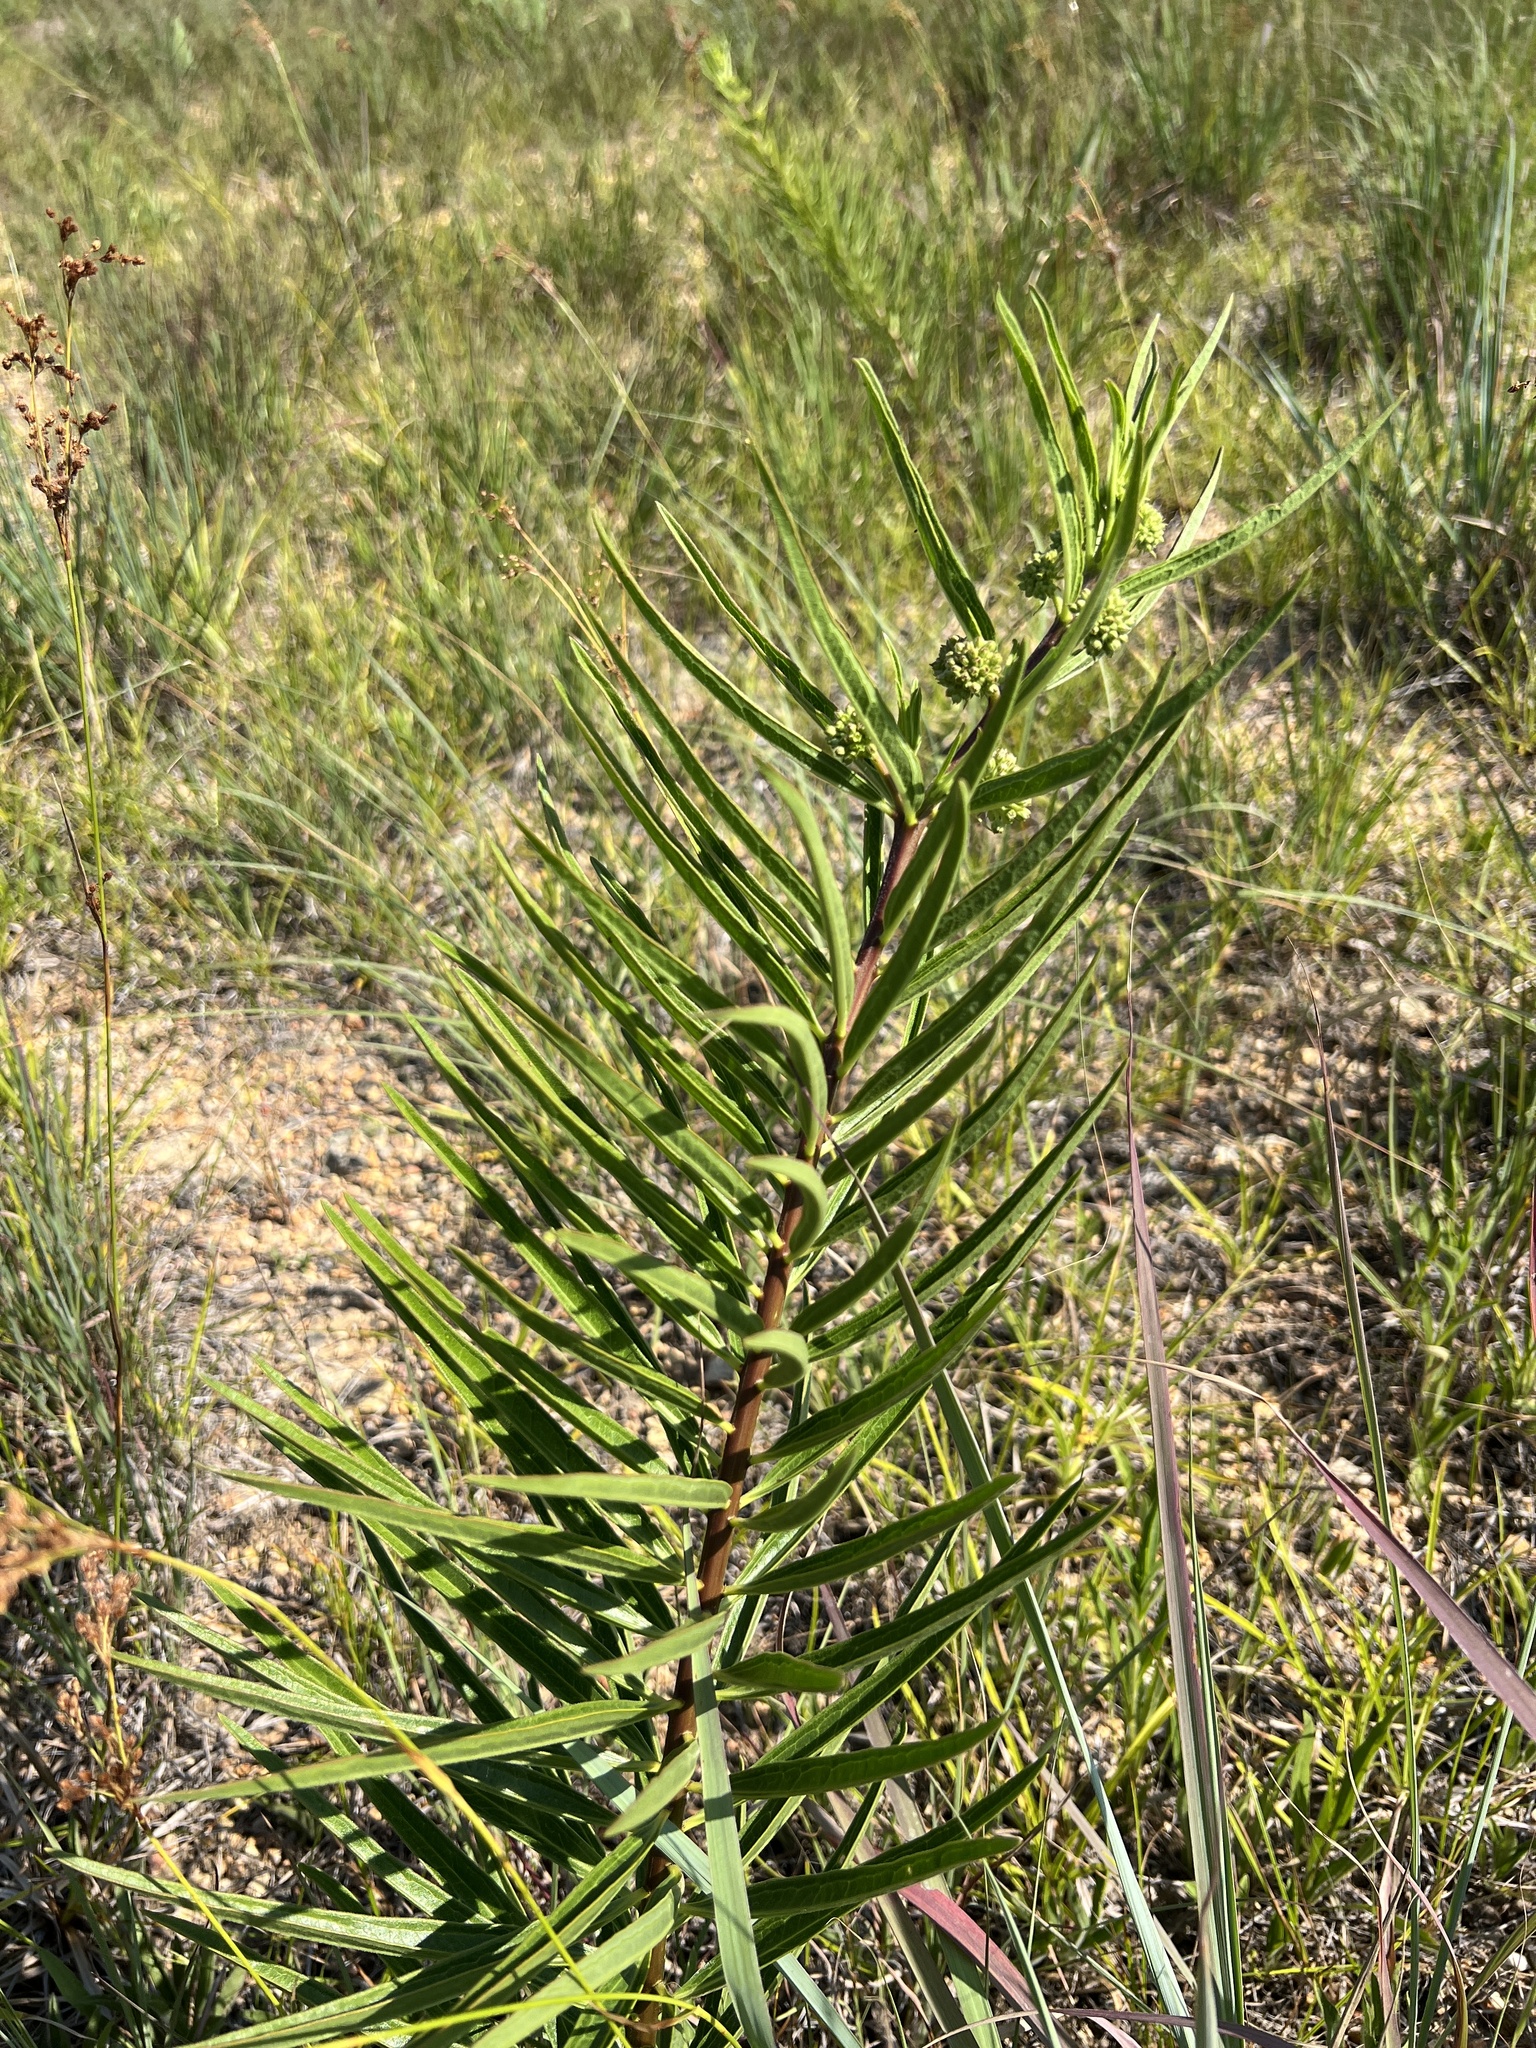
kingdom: Plantae
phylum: Tracheophyta
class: Magnoliopsida
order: Gentianales
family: Apocynaceae
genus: Asclepias
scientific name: Asclepias hirtella
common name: Prairie milkweed
